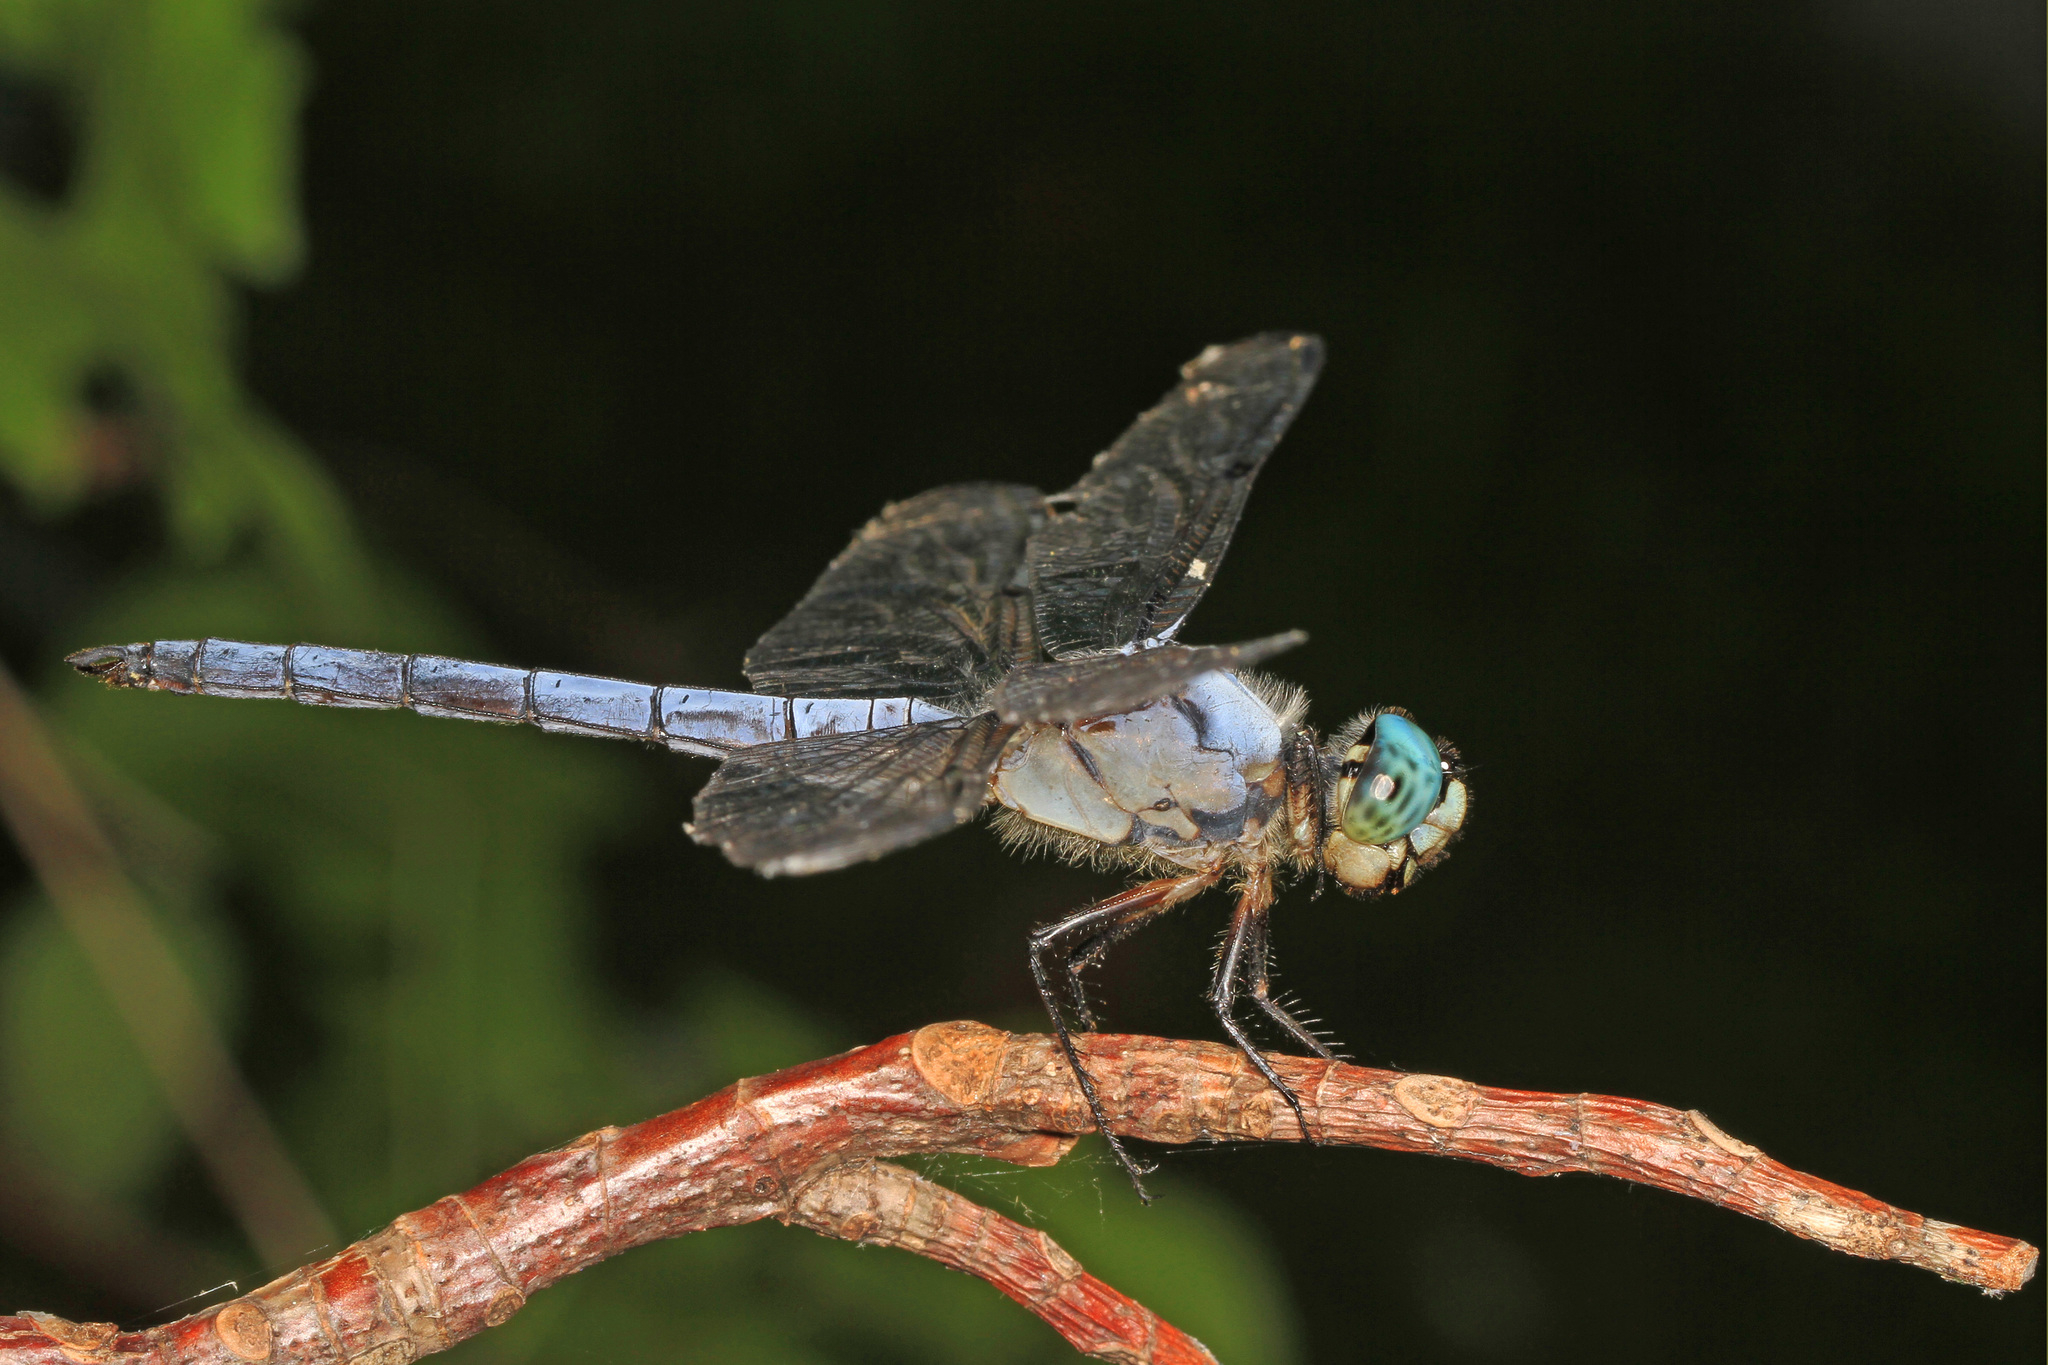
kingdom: Animalia
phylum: Arthropoda
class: Insecta
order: Odonata
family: Libellulidae
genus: Libellula
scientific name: Libellula vibrans
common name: Great blue skimmer
